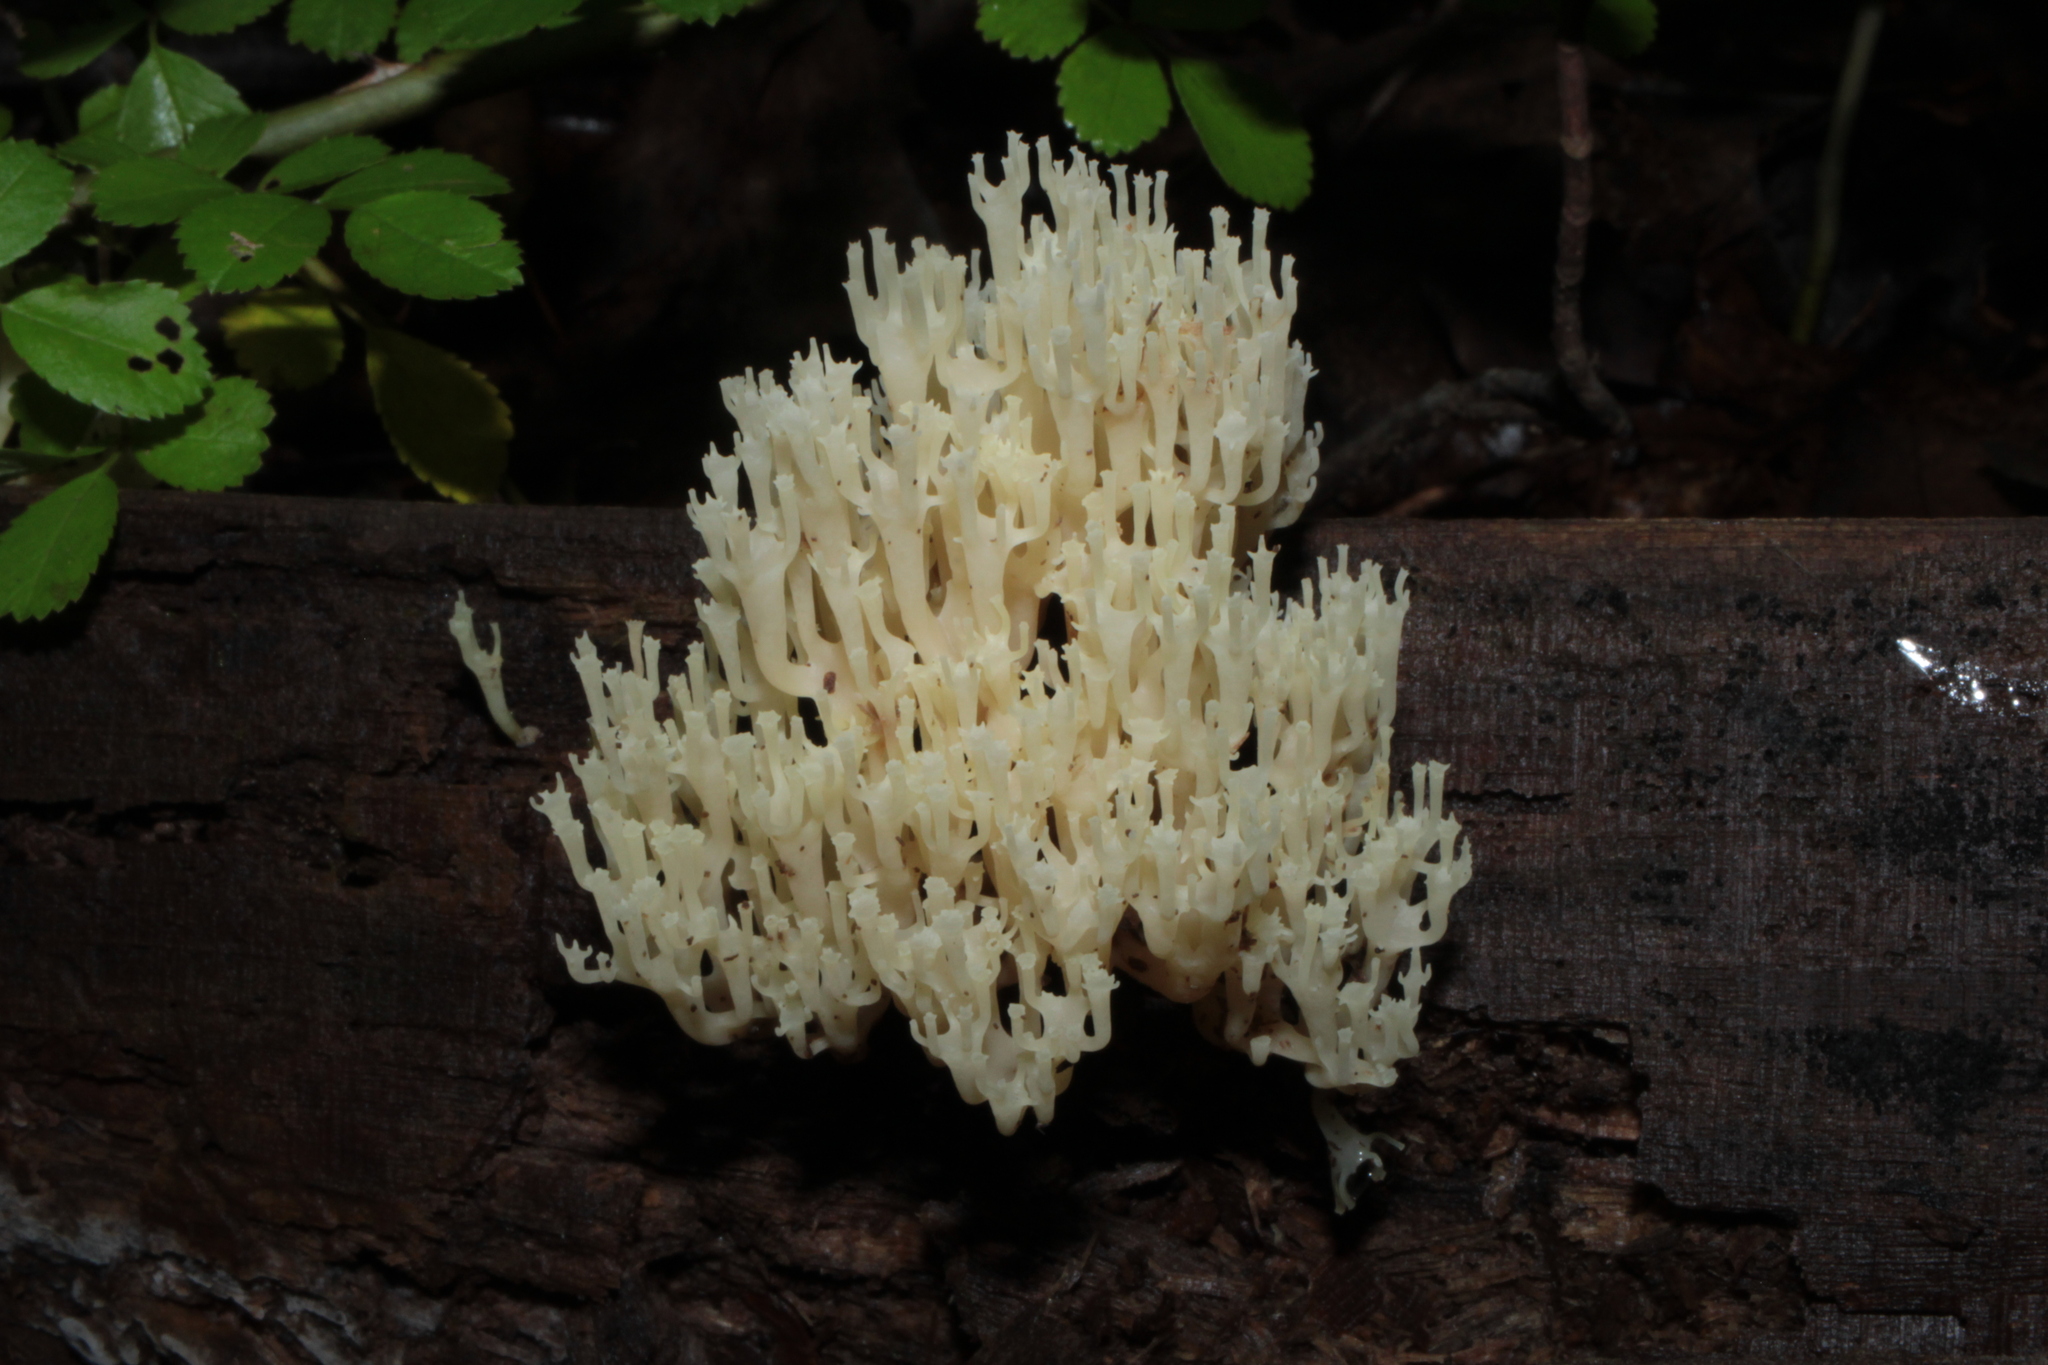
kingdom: Fungi
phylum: Basidiomycota
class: Agaricomycetes
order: Russulales
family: Auriscalpiaceae
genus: Artomyces
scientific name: Artomyces pyxidatus
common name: Crown-tipped coral fungus
